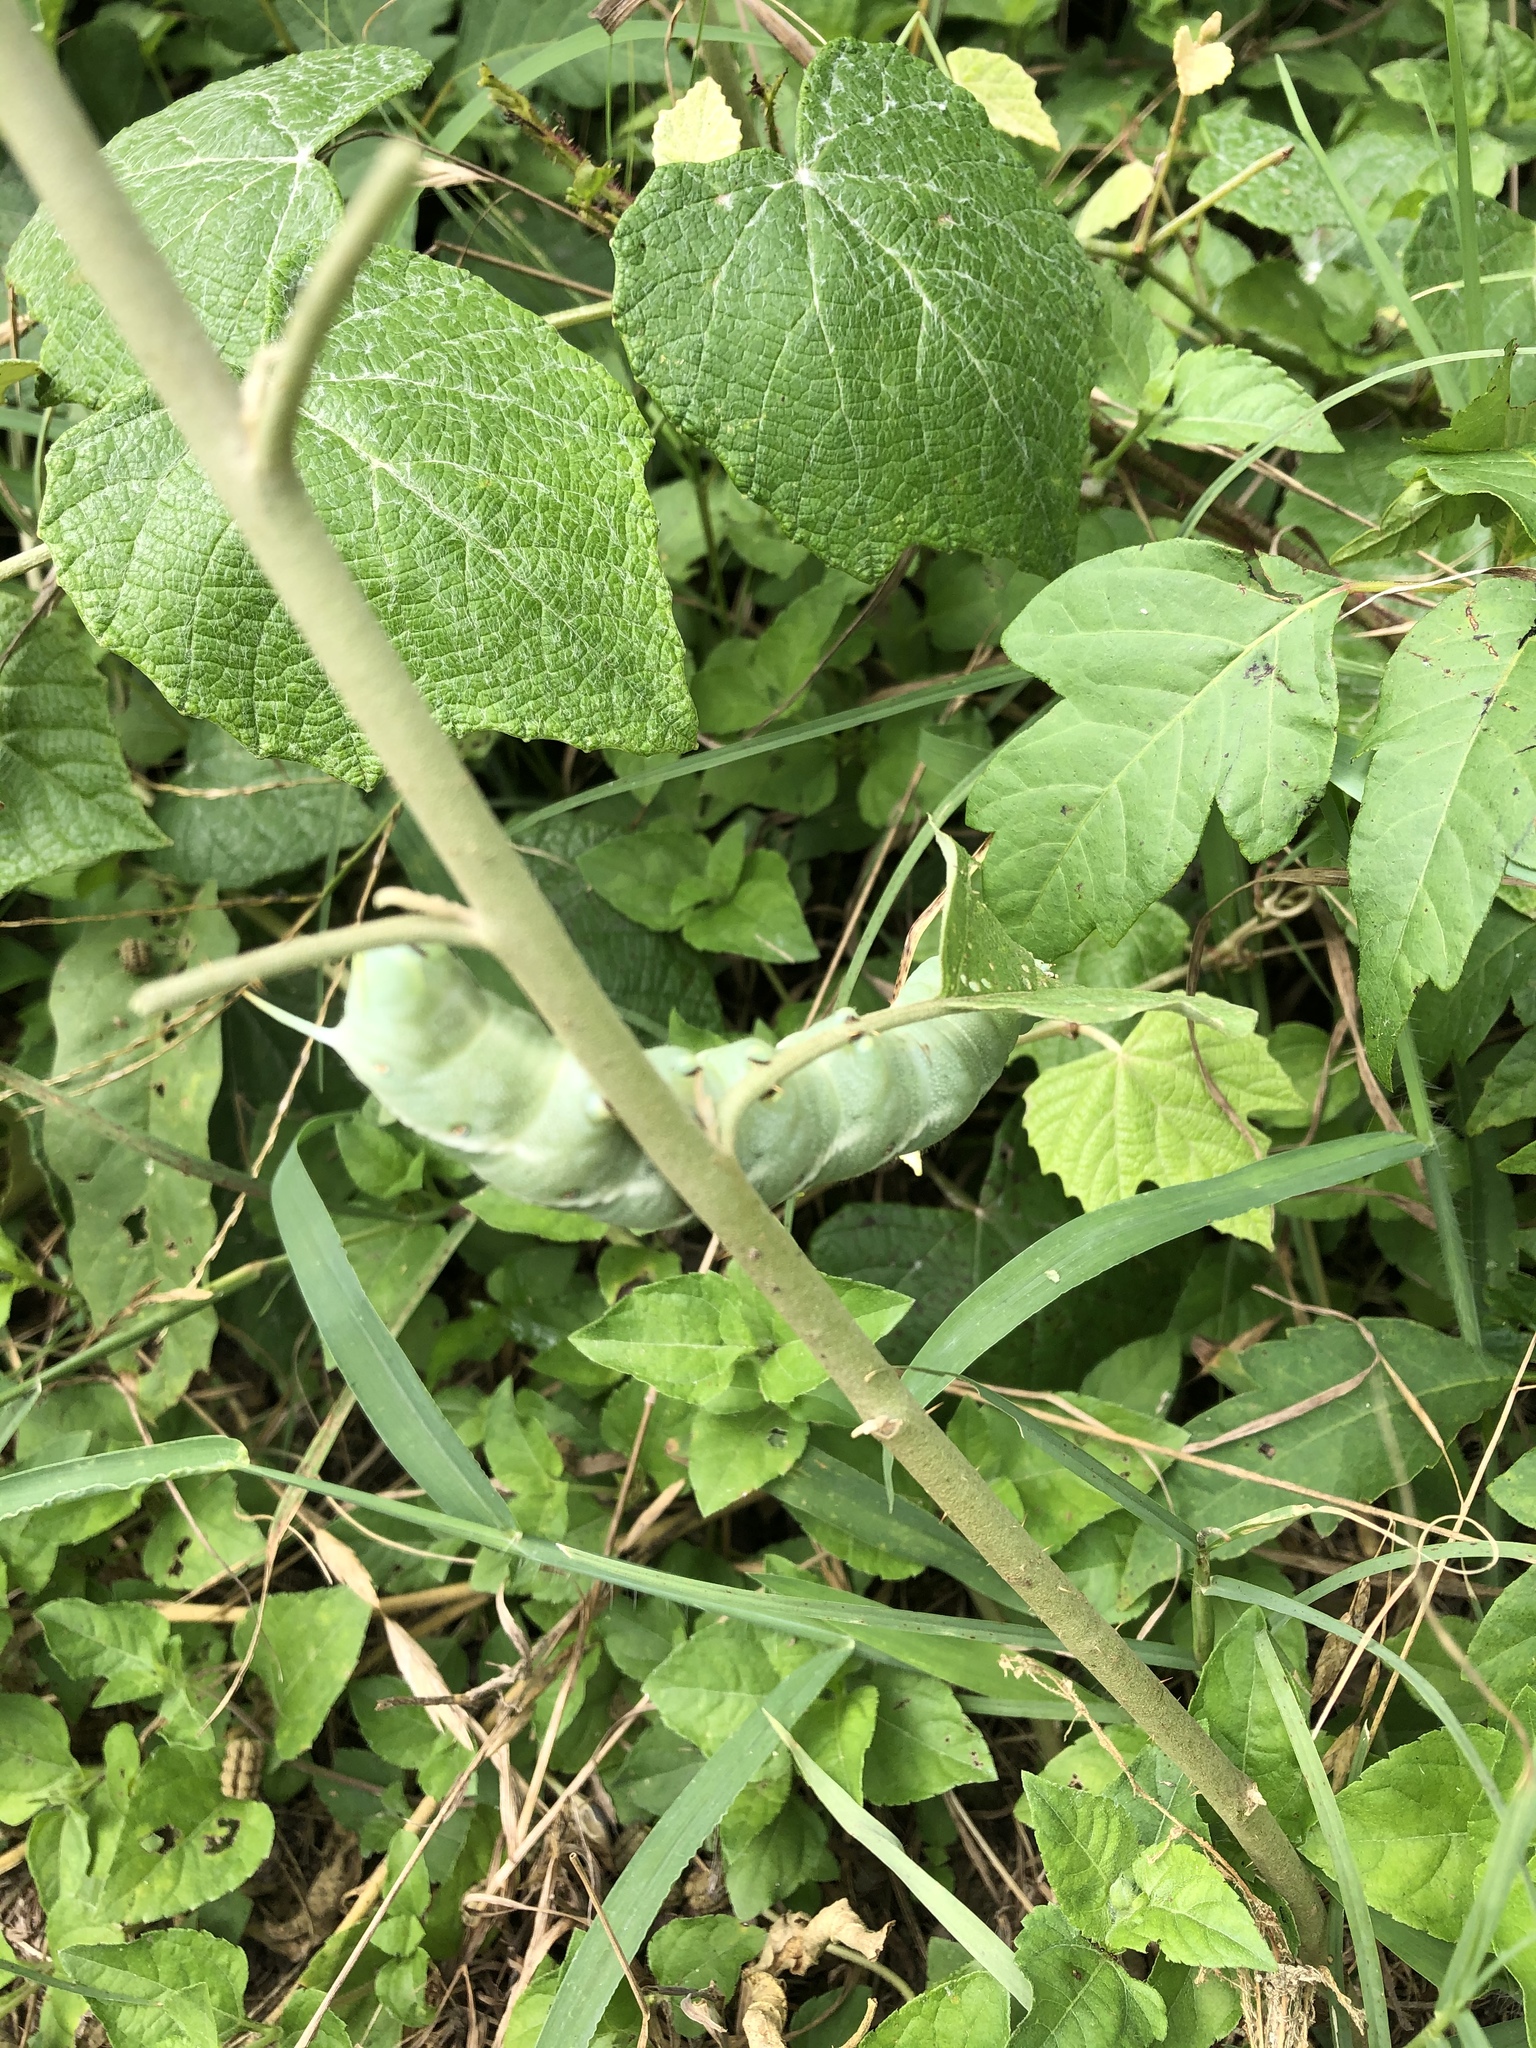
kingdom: Animalia
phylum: Arthropoda
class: Insecta
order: Lepidoptera
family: Sphingidae
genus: Manduca
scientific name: Manduca sexta
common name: Carolina sphinx
